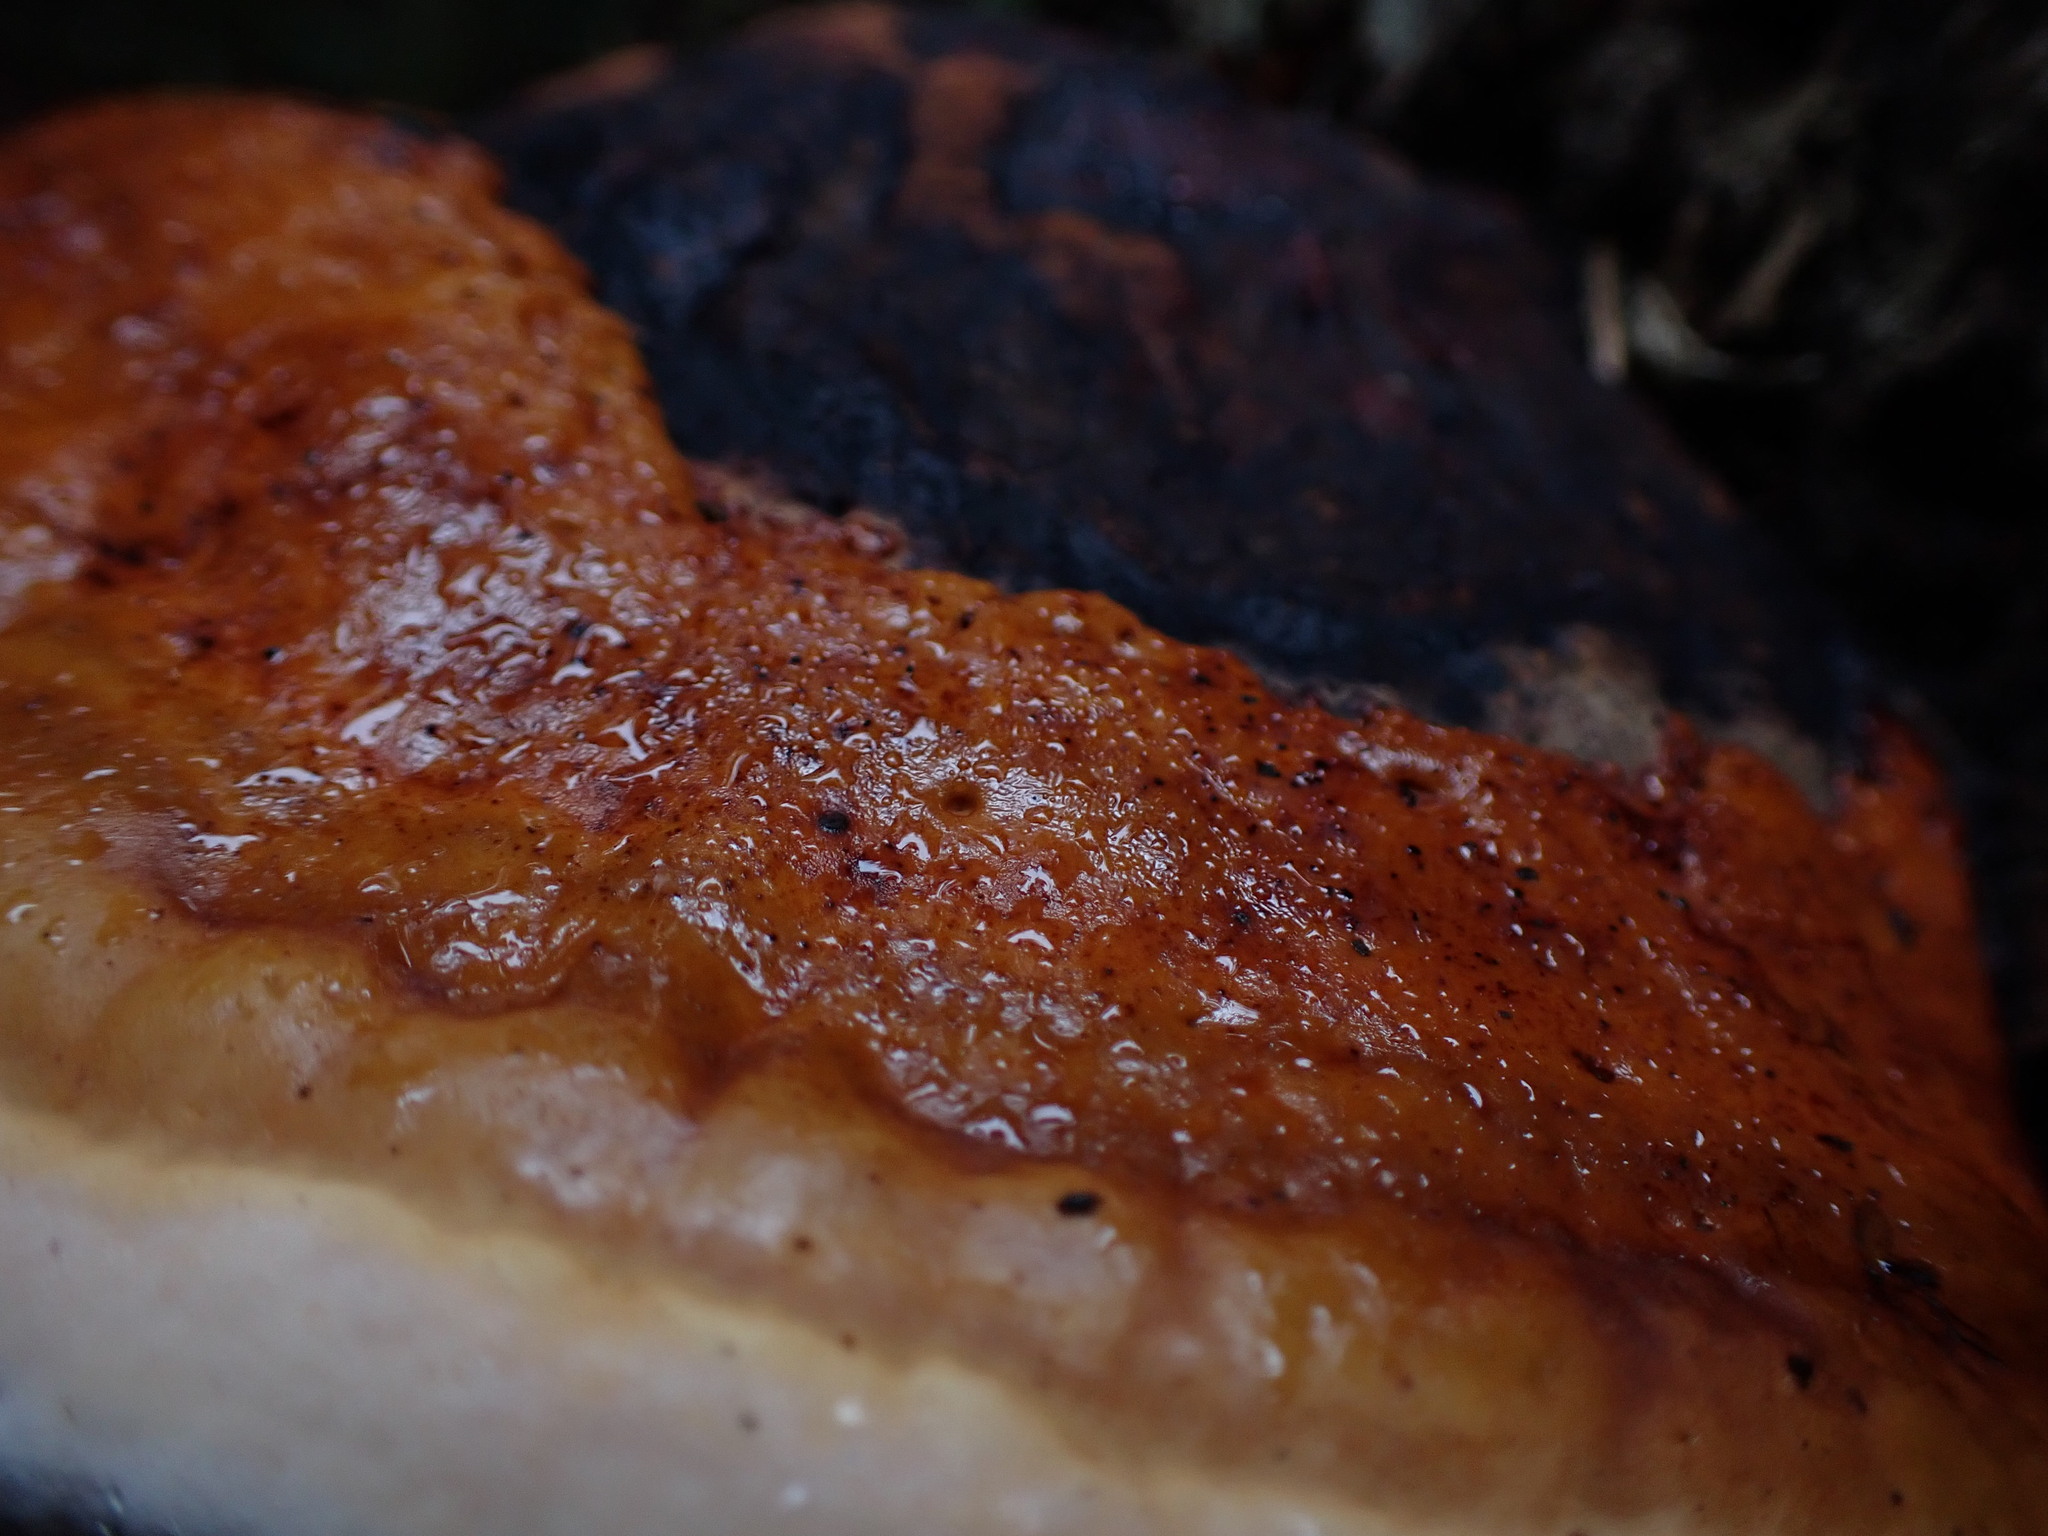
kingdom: Fungi
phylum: Basidiomycota
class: Agaricomycetes
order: Polyporales
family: Fomitopsidaceae
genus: Fomitopsis
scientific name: Fomitopsis mounceae
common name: Northern red belt
